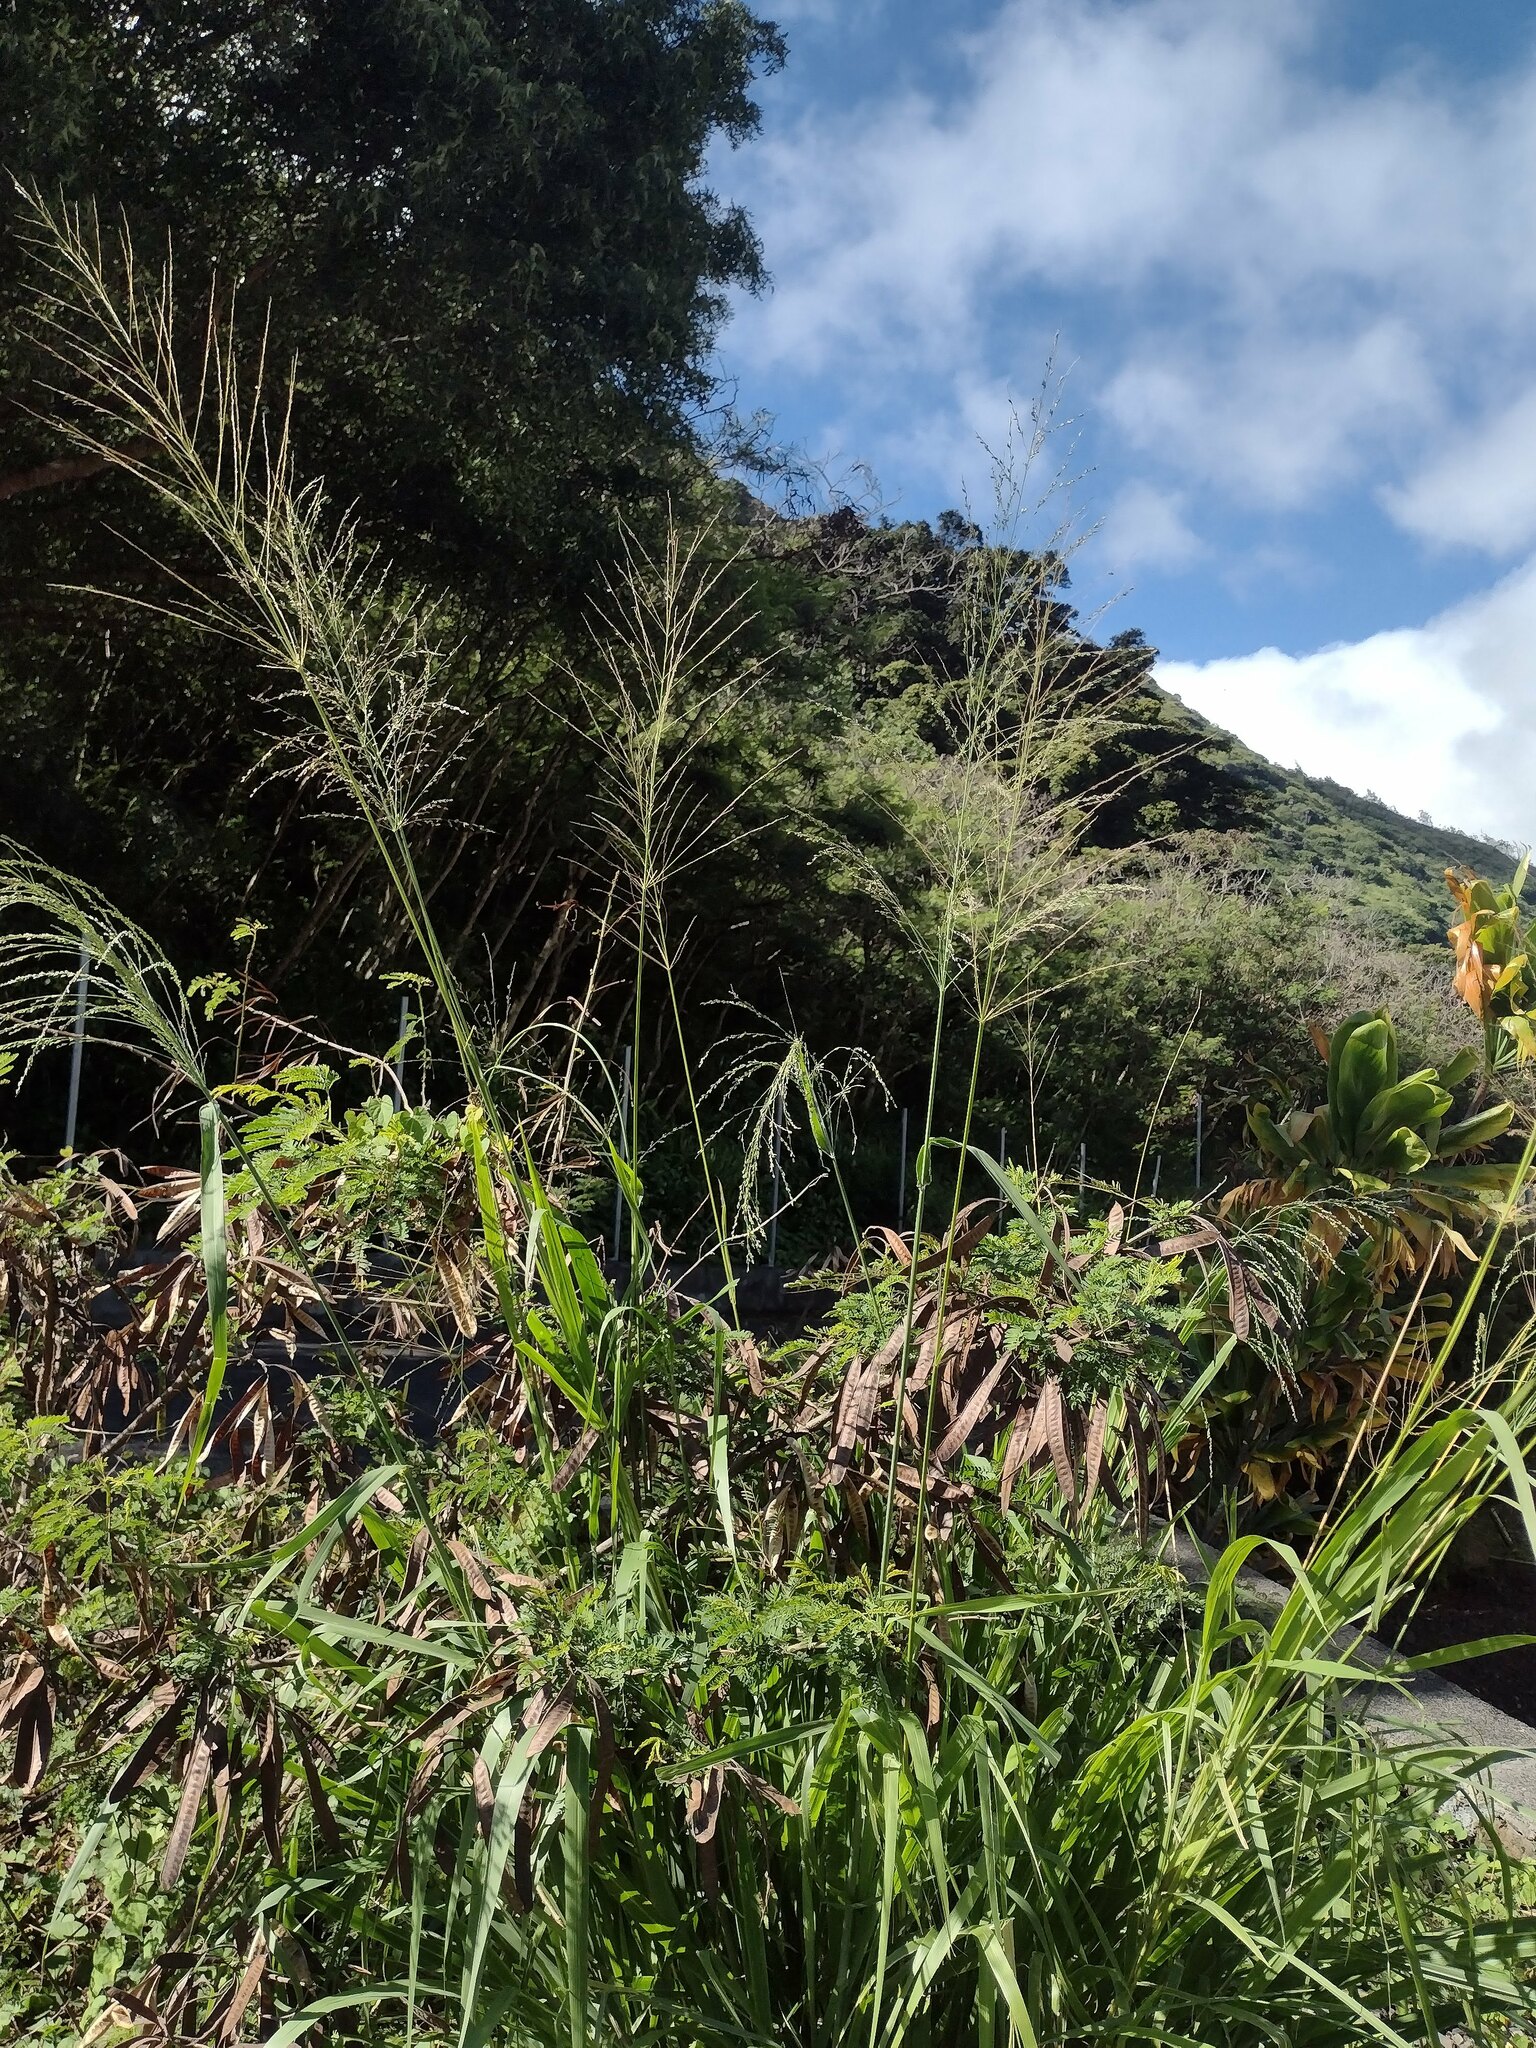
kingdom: Plantae
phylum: Tracheophyta
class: Liliopsida
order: Poales
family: Poaceae
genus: Megathyrsus
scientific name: Megathyrsus maximus
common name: Guineagrass
